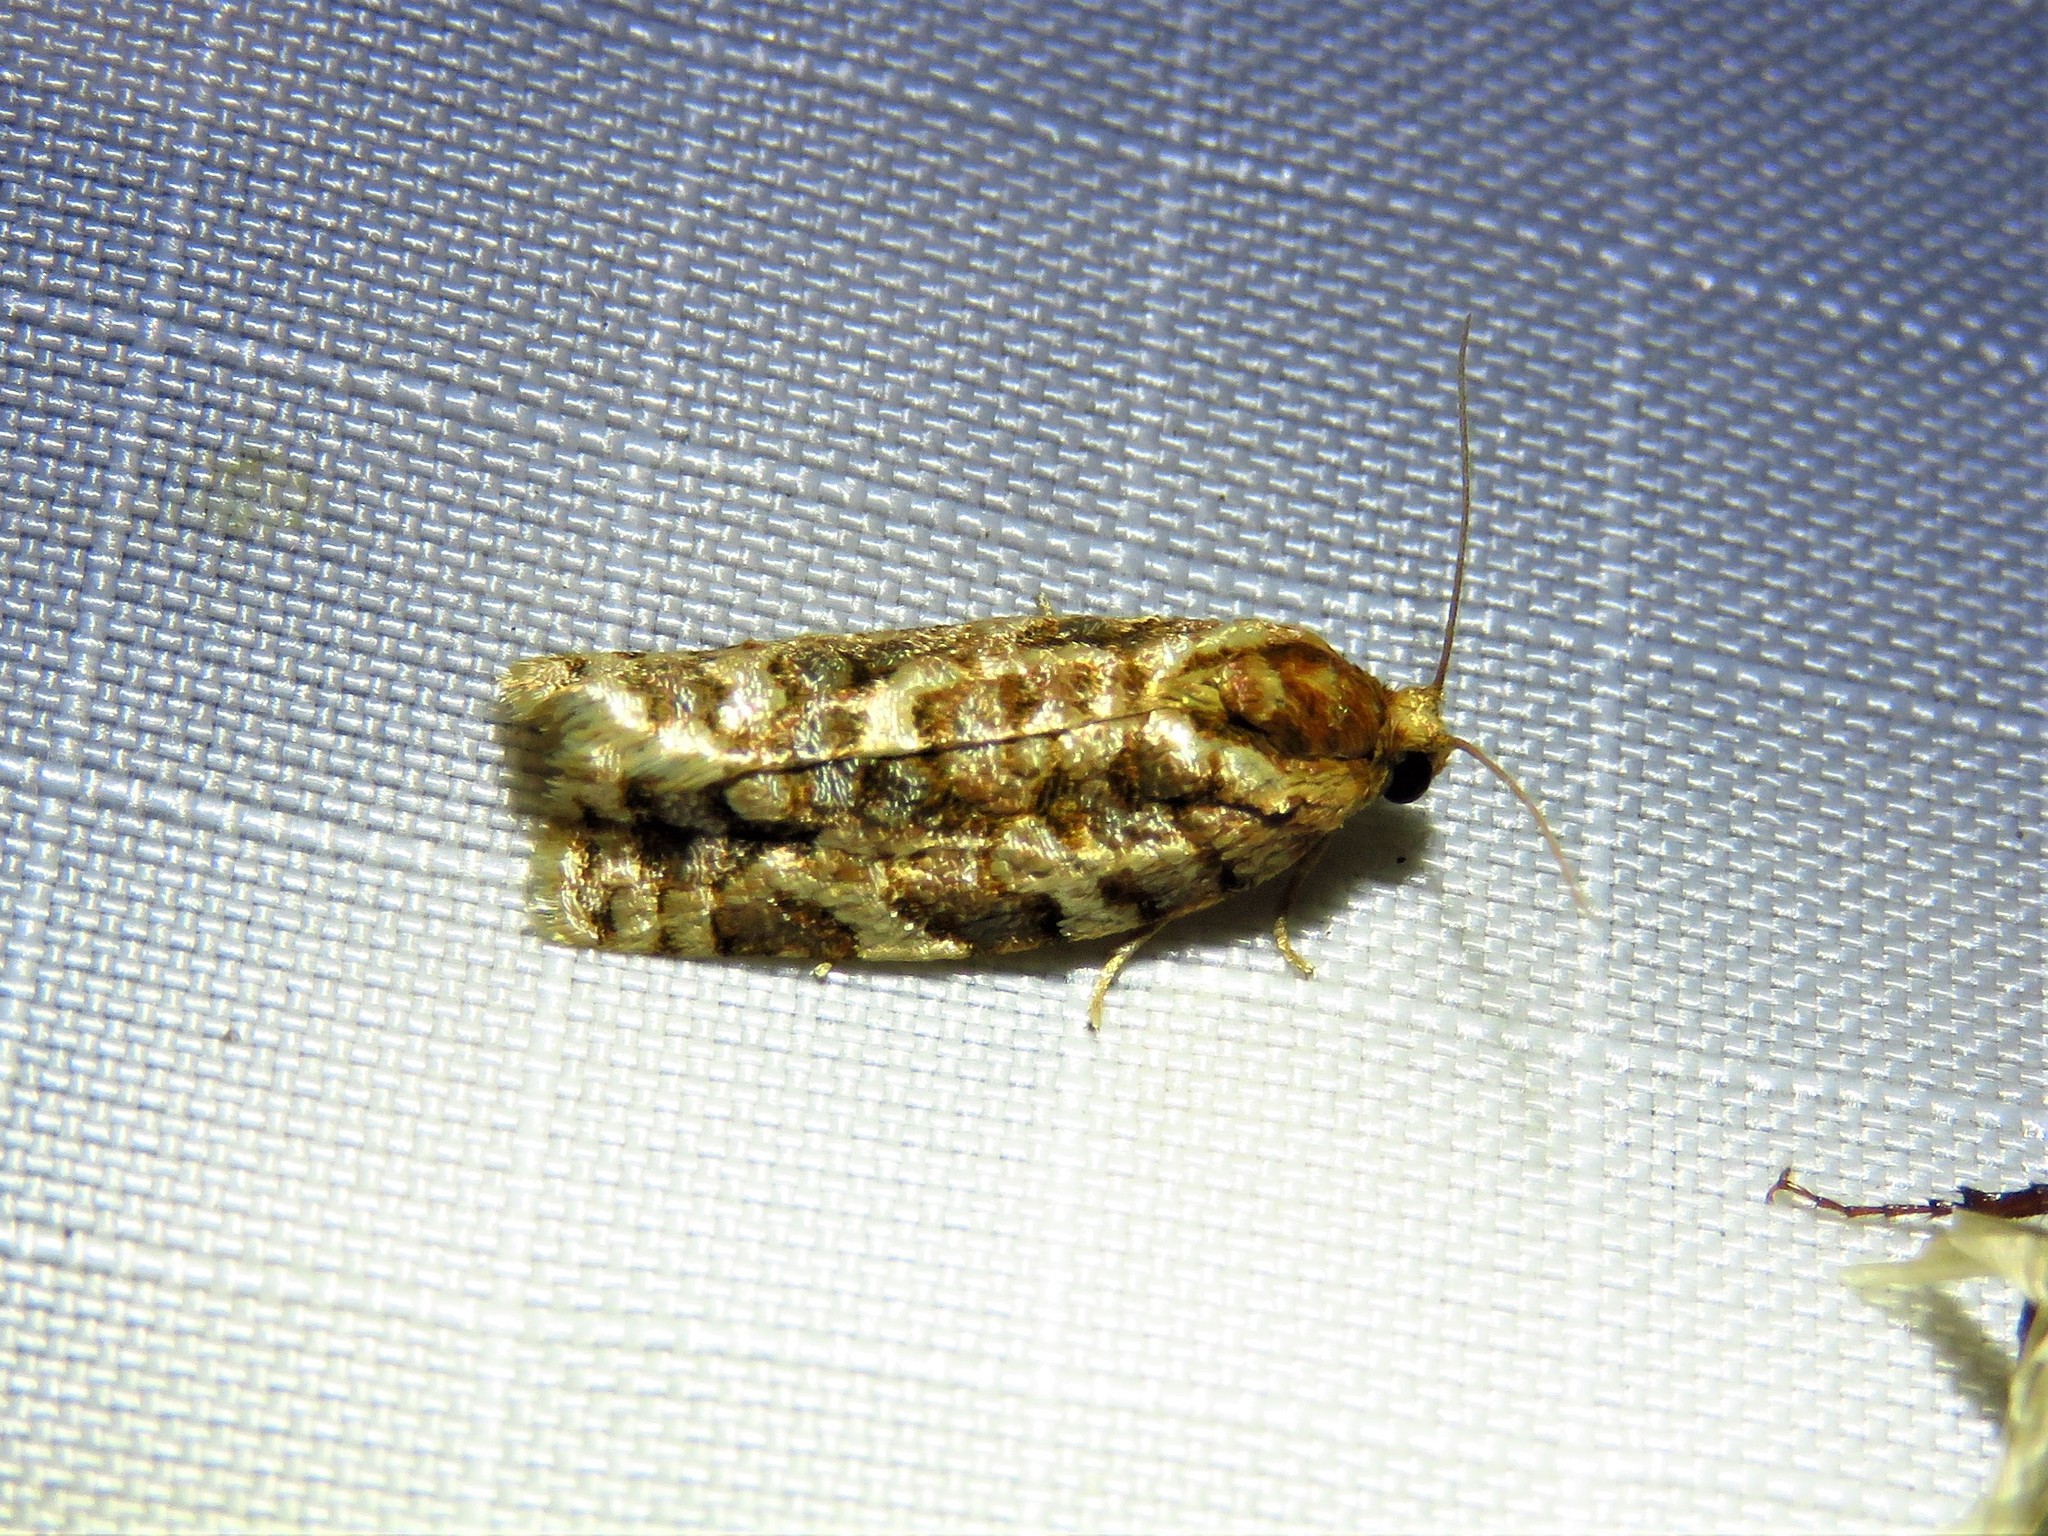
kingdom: Animalia
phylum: Arthropoda
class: Insecta
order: Lepidoptera
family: Tortricidae
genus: Choristoneura
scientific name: Choristoneura houstonana
